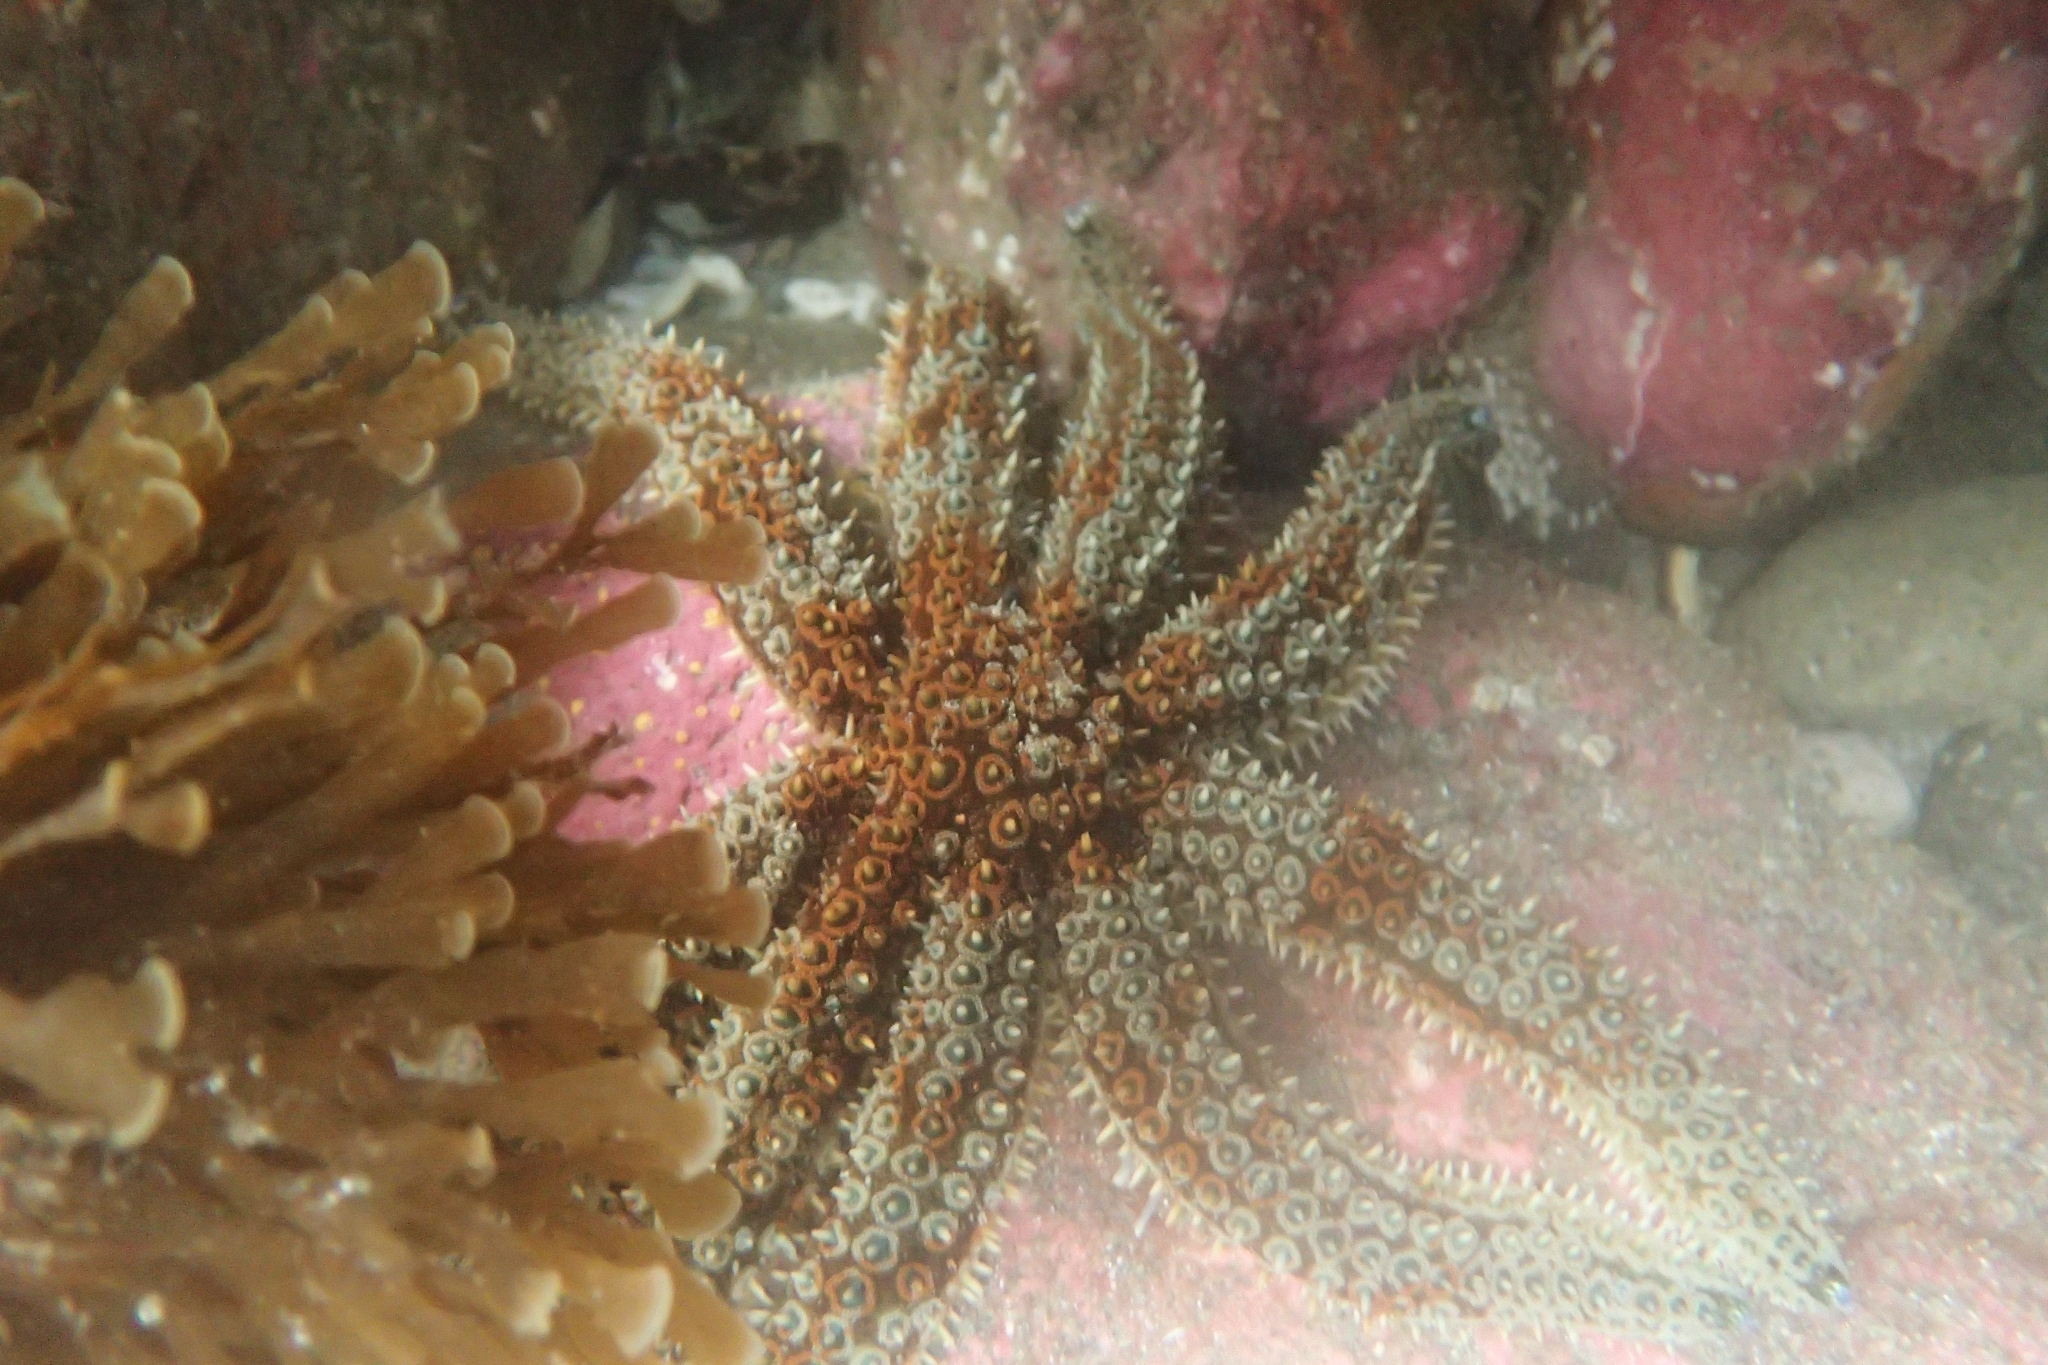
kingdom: Animalia
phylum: Echinodermata
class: Asteroidea
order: Forcipulatida
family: Asteriidae
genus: Coscinasterias
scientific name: Coscinasterias muricata
